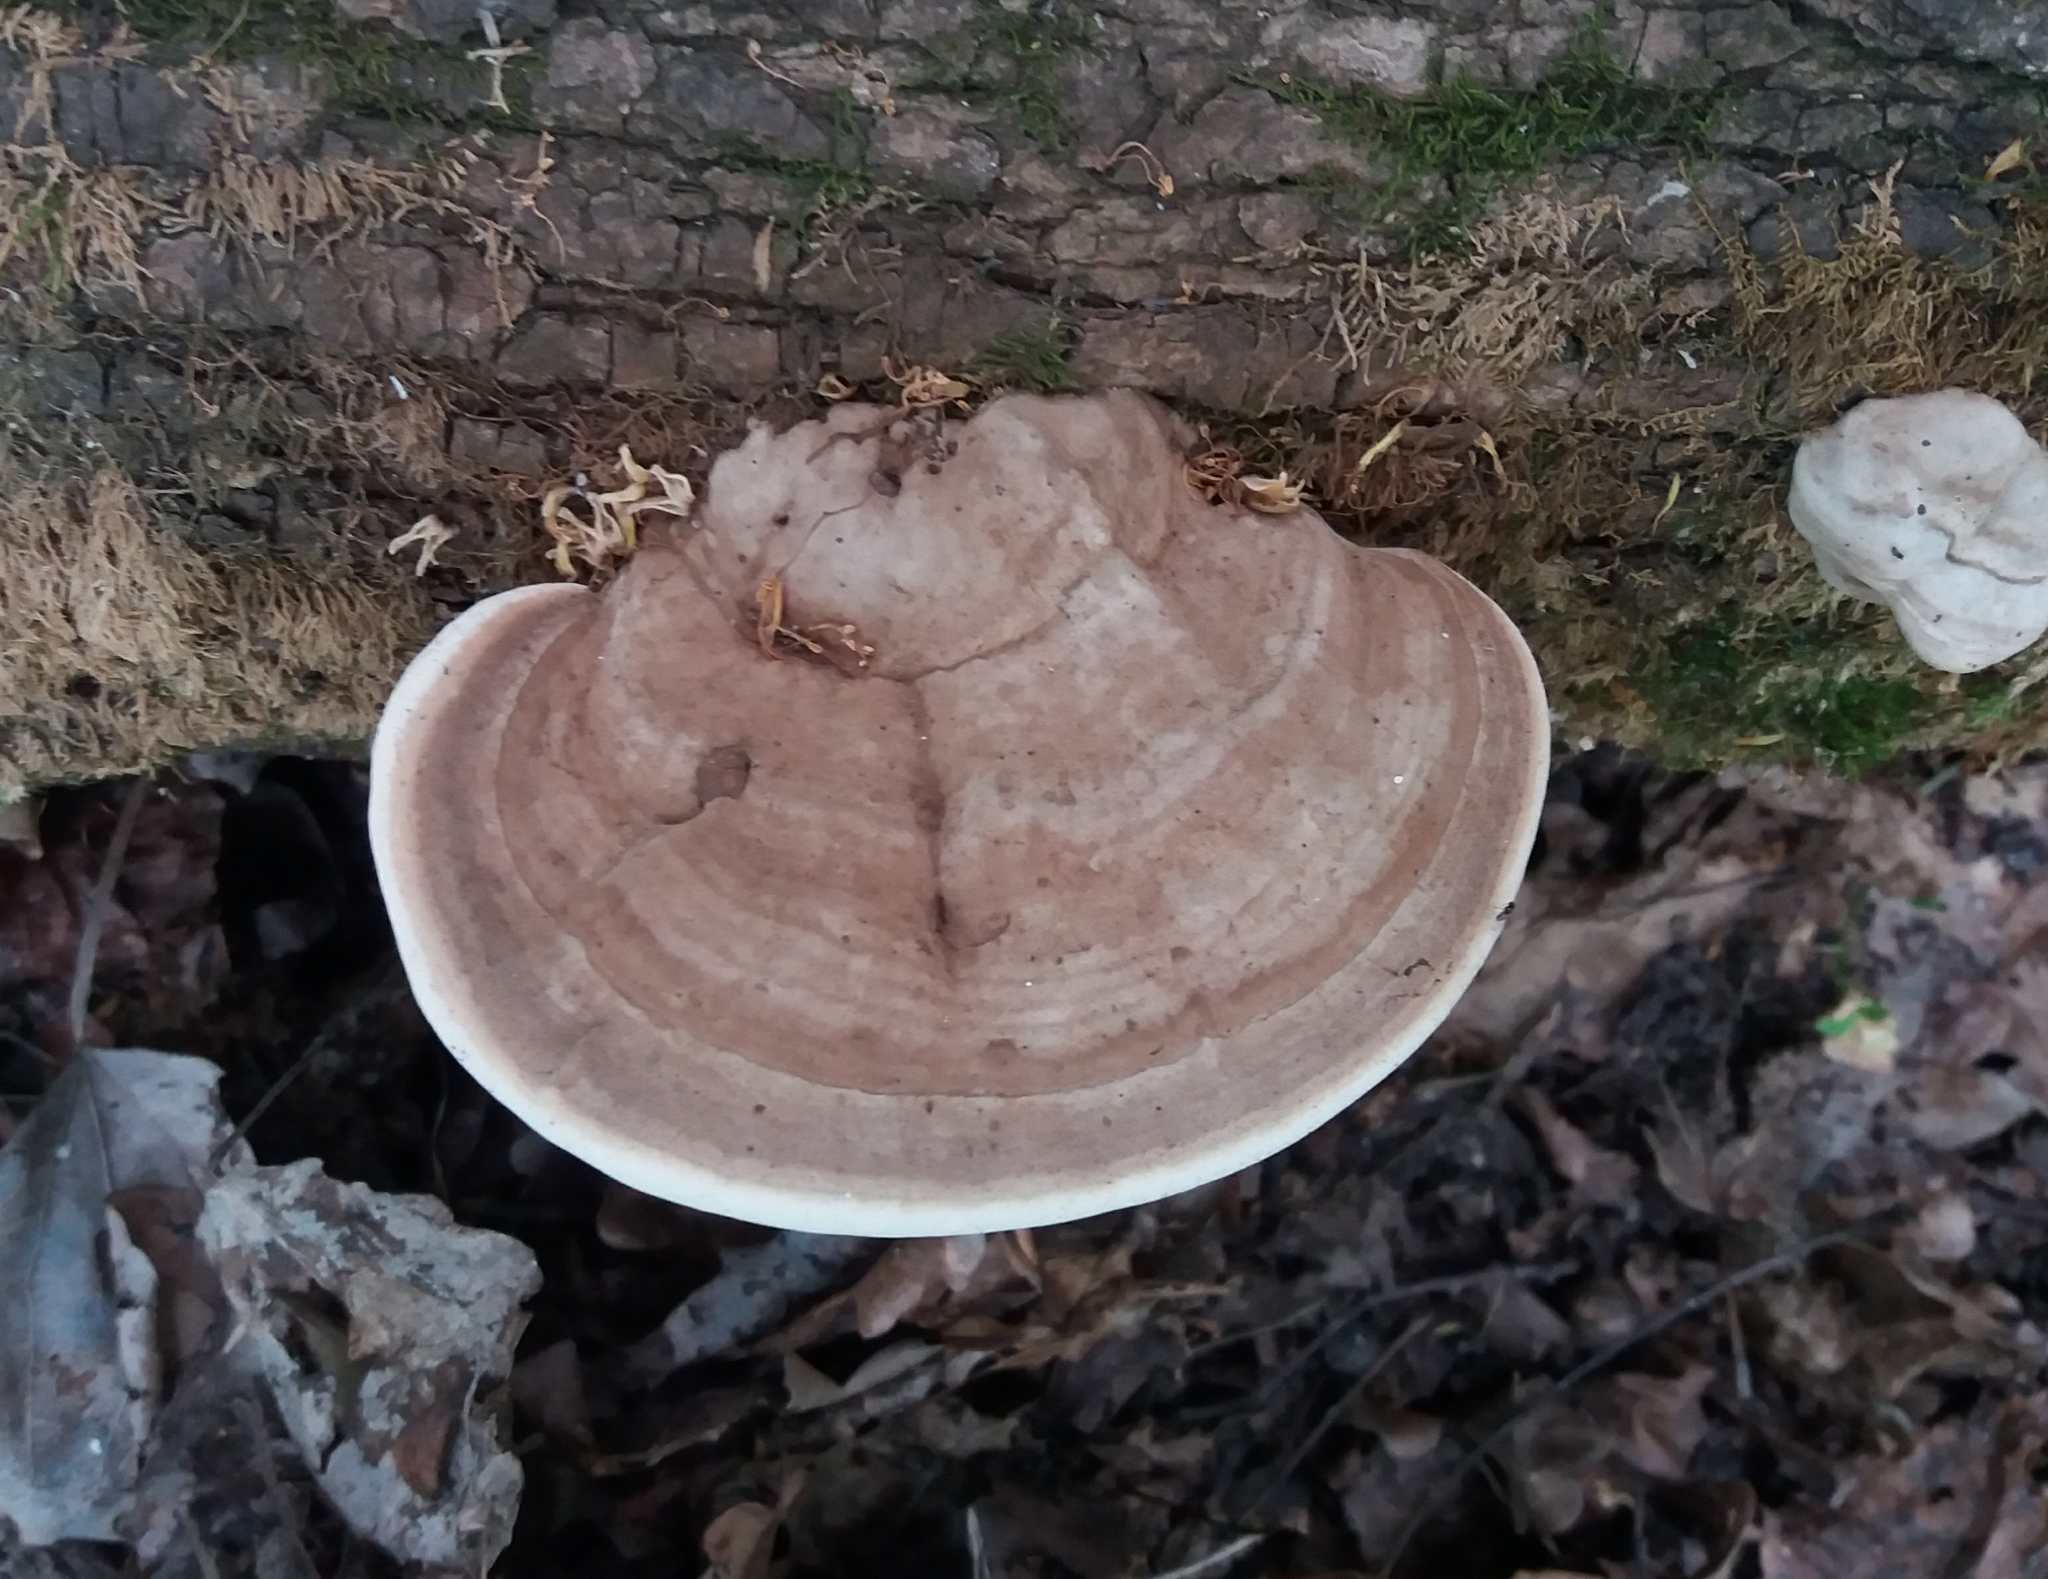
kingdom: Fungi
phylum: Basidiomycota
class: Agaricomycetes
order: Polyporales
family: Polyporaceae
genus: Ganoderma
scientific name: Ganoderma applanatum
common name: Artist's bracket
